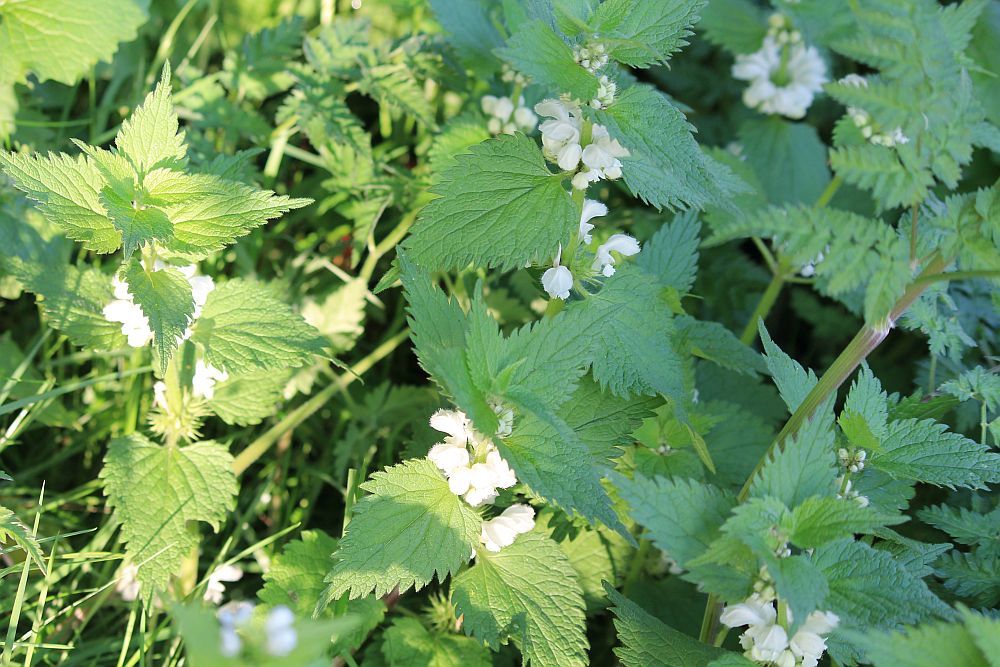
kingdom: Plantae
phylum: Tracheophyta
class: Magnoliopsida
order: Lamiales
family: Lamiaceae
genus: Lamium
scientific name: Lamium album
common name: White dead-nettle
